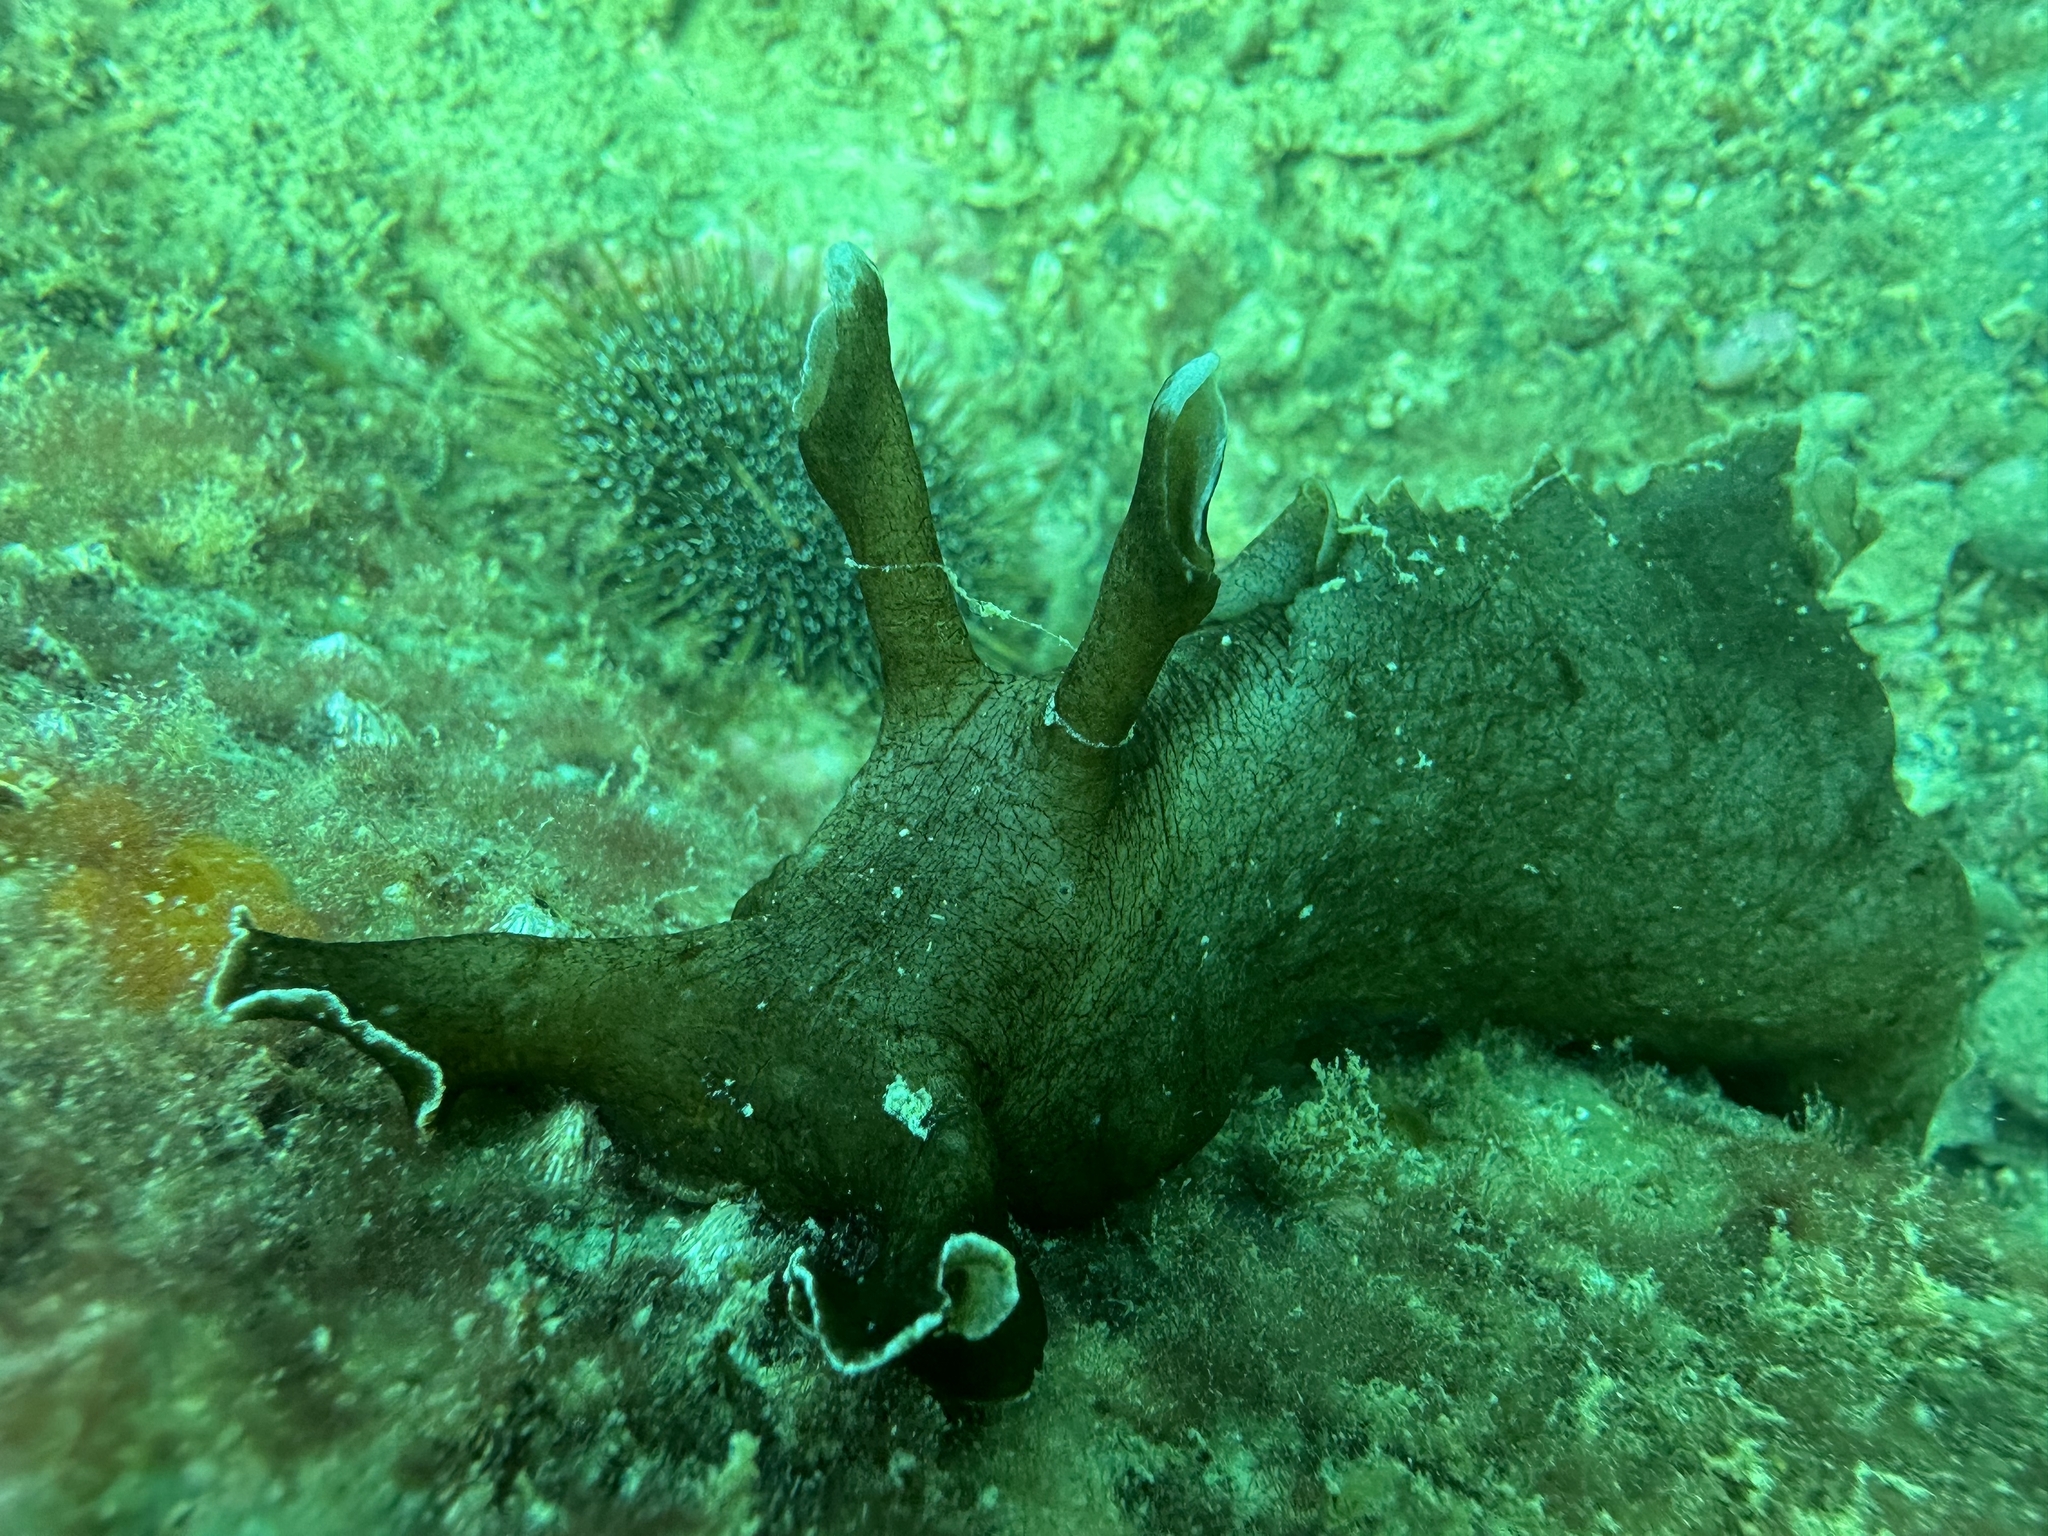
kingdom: Animalia
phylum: Mollusca
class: Gastropoda
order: Aplysiida
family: Aplysiidae
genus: Aplysia
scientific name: Aplysia keraudreni
